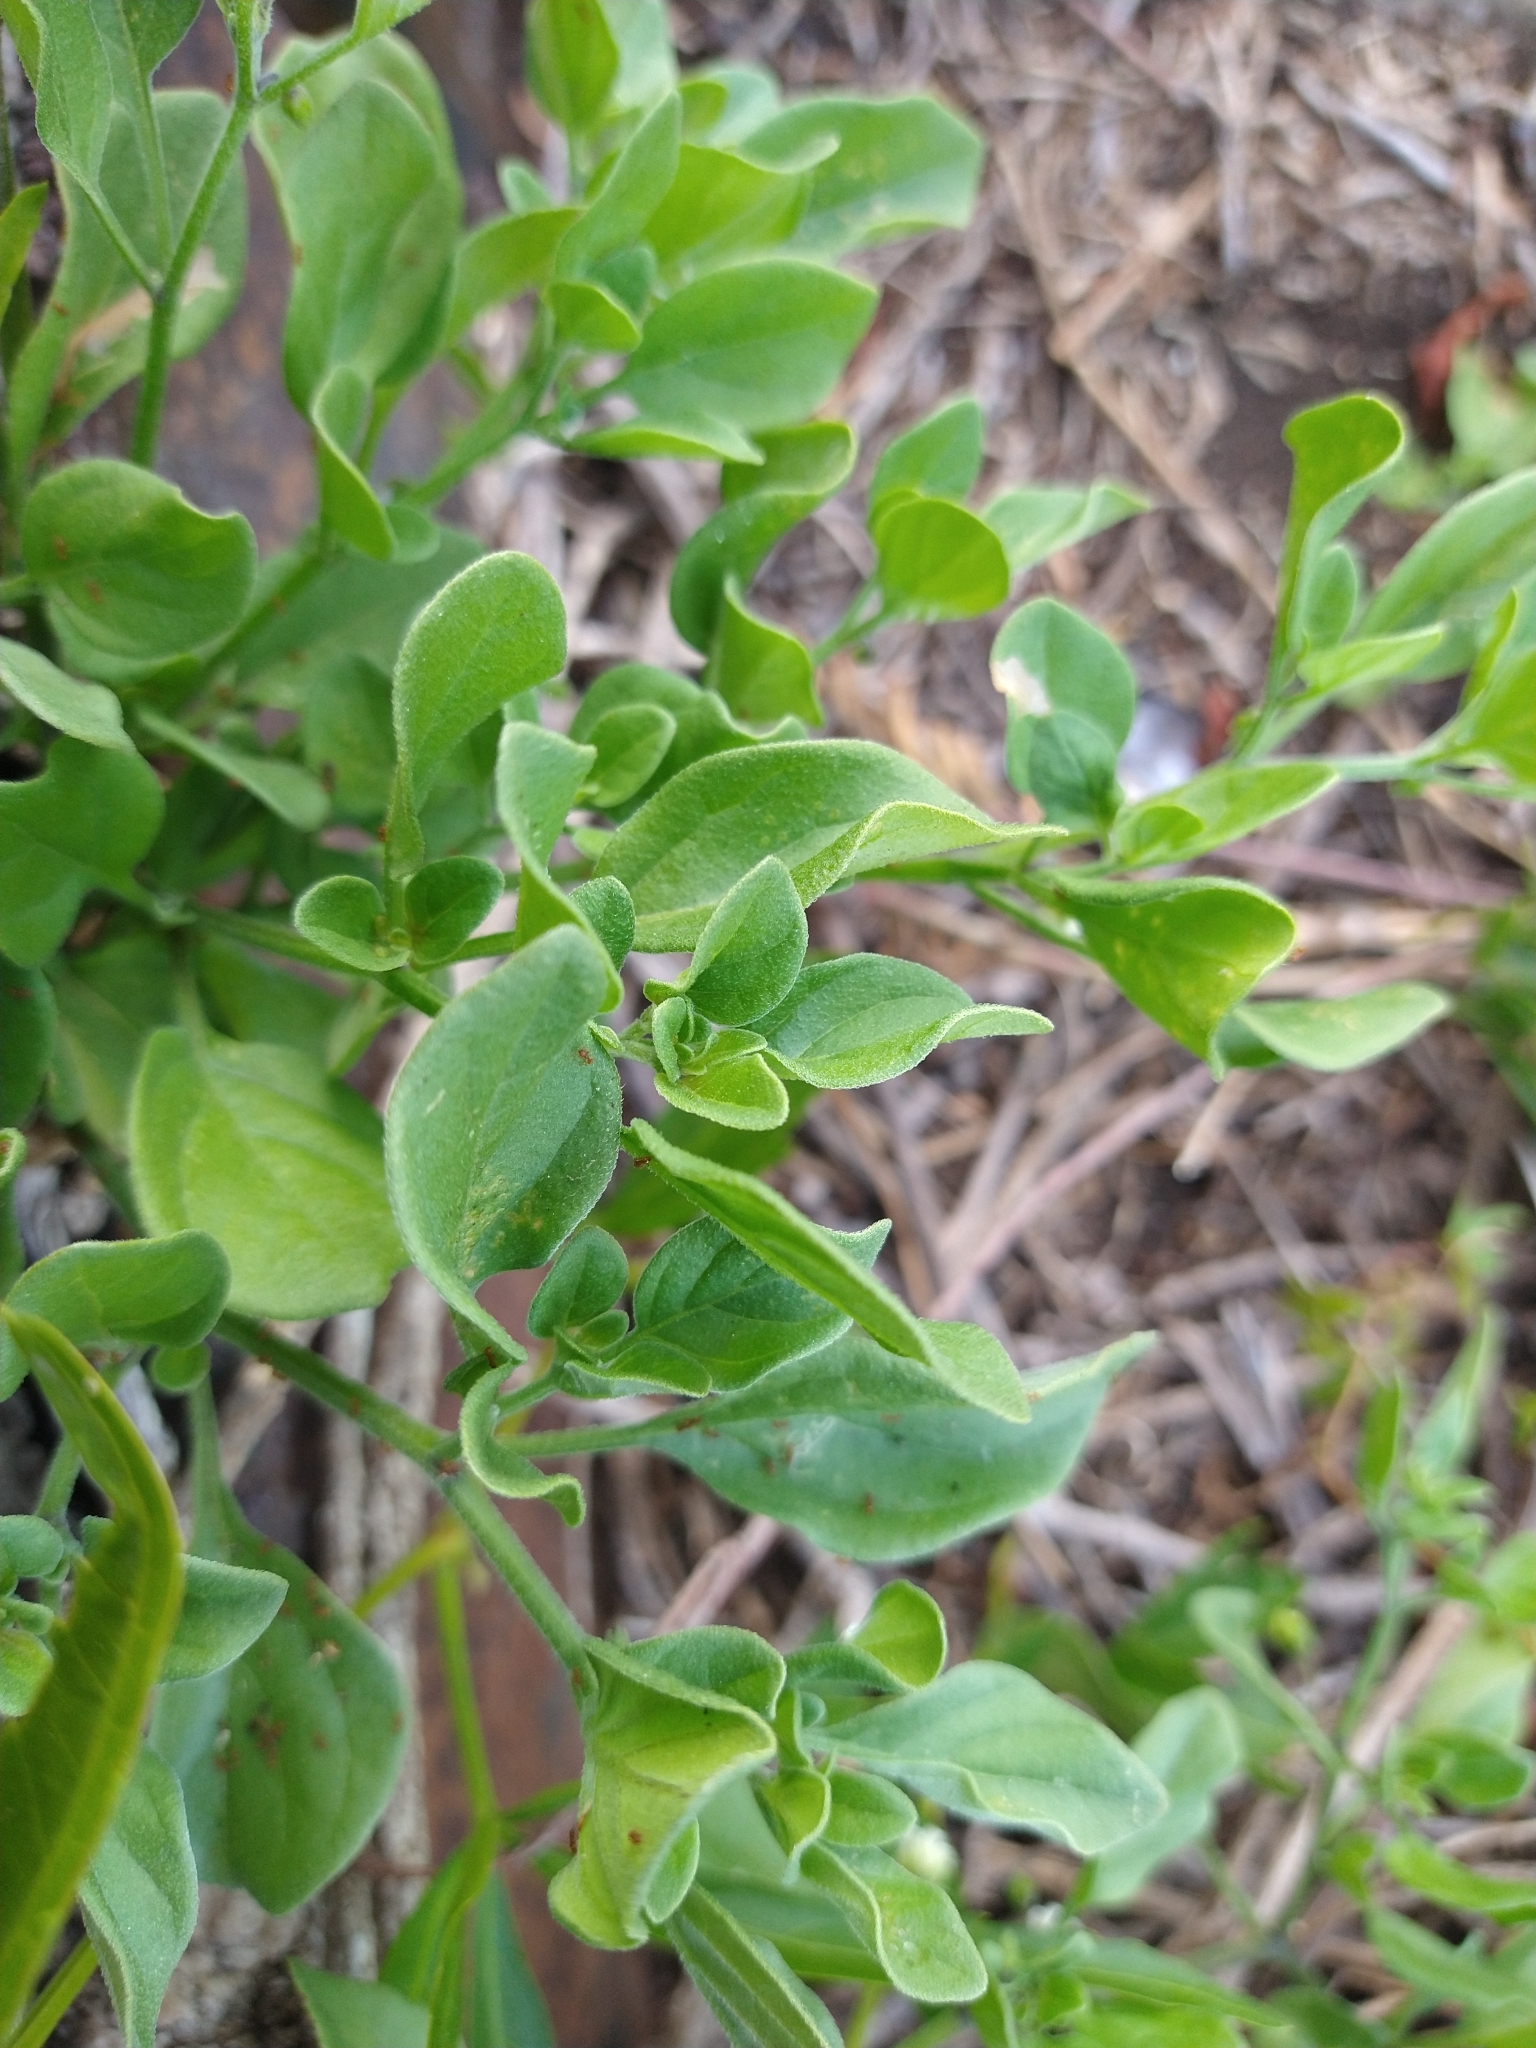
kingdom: Plantae
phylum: Tracheophyta
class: Magnoliopsida
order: Solanales
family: Solanaceae
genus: Salpichroa
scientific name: Salpichroa origanifolia
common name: Lily-of-the-valley-vine
